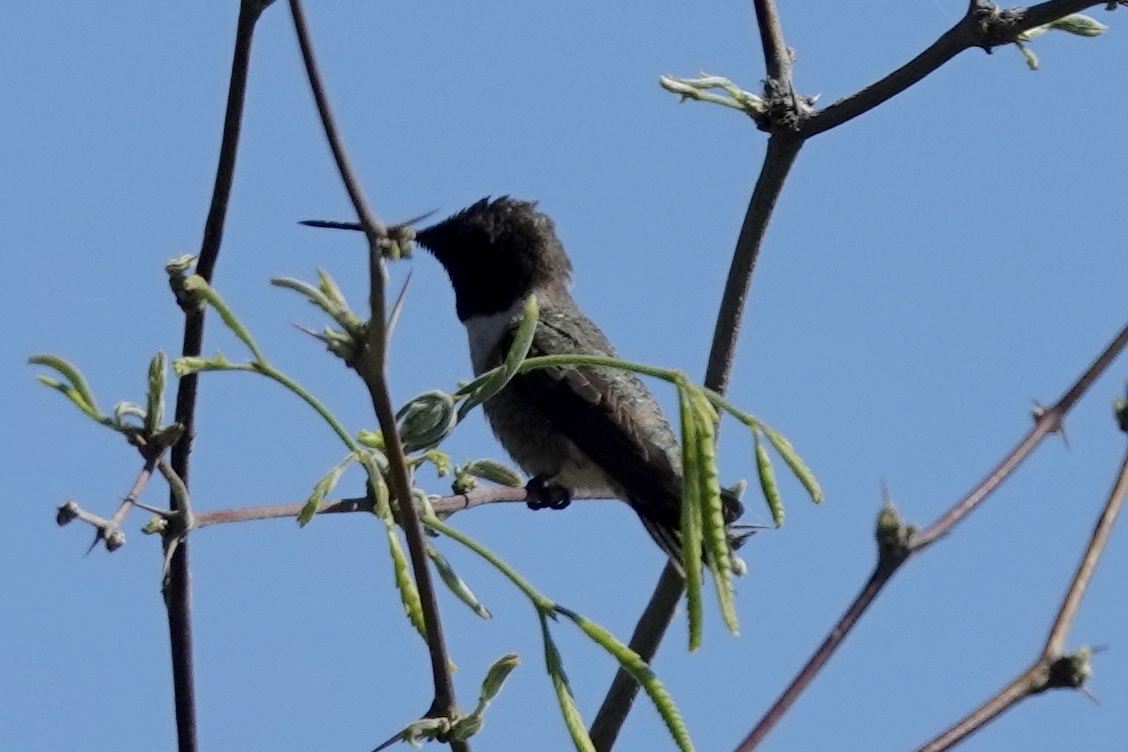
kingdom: Animalia
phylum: Chordata
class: Aves
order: Apodiformes
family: Trochilidae
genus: Archilochus
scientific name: Archilochus alexandri
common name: Black-chinned hummingbird
